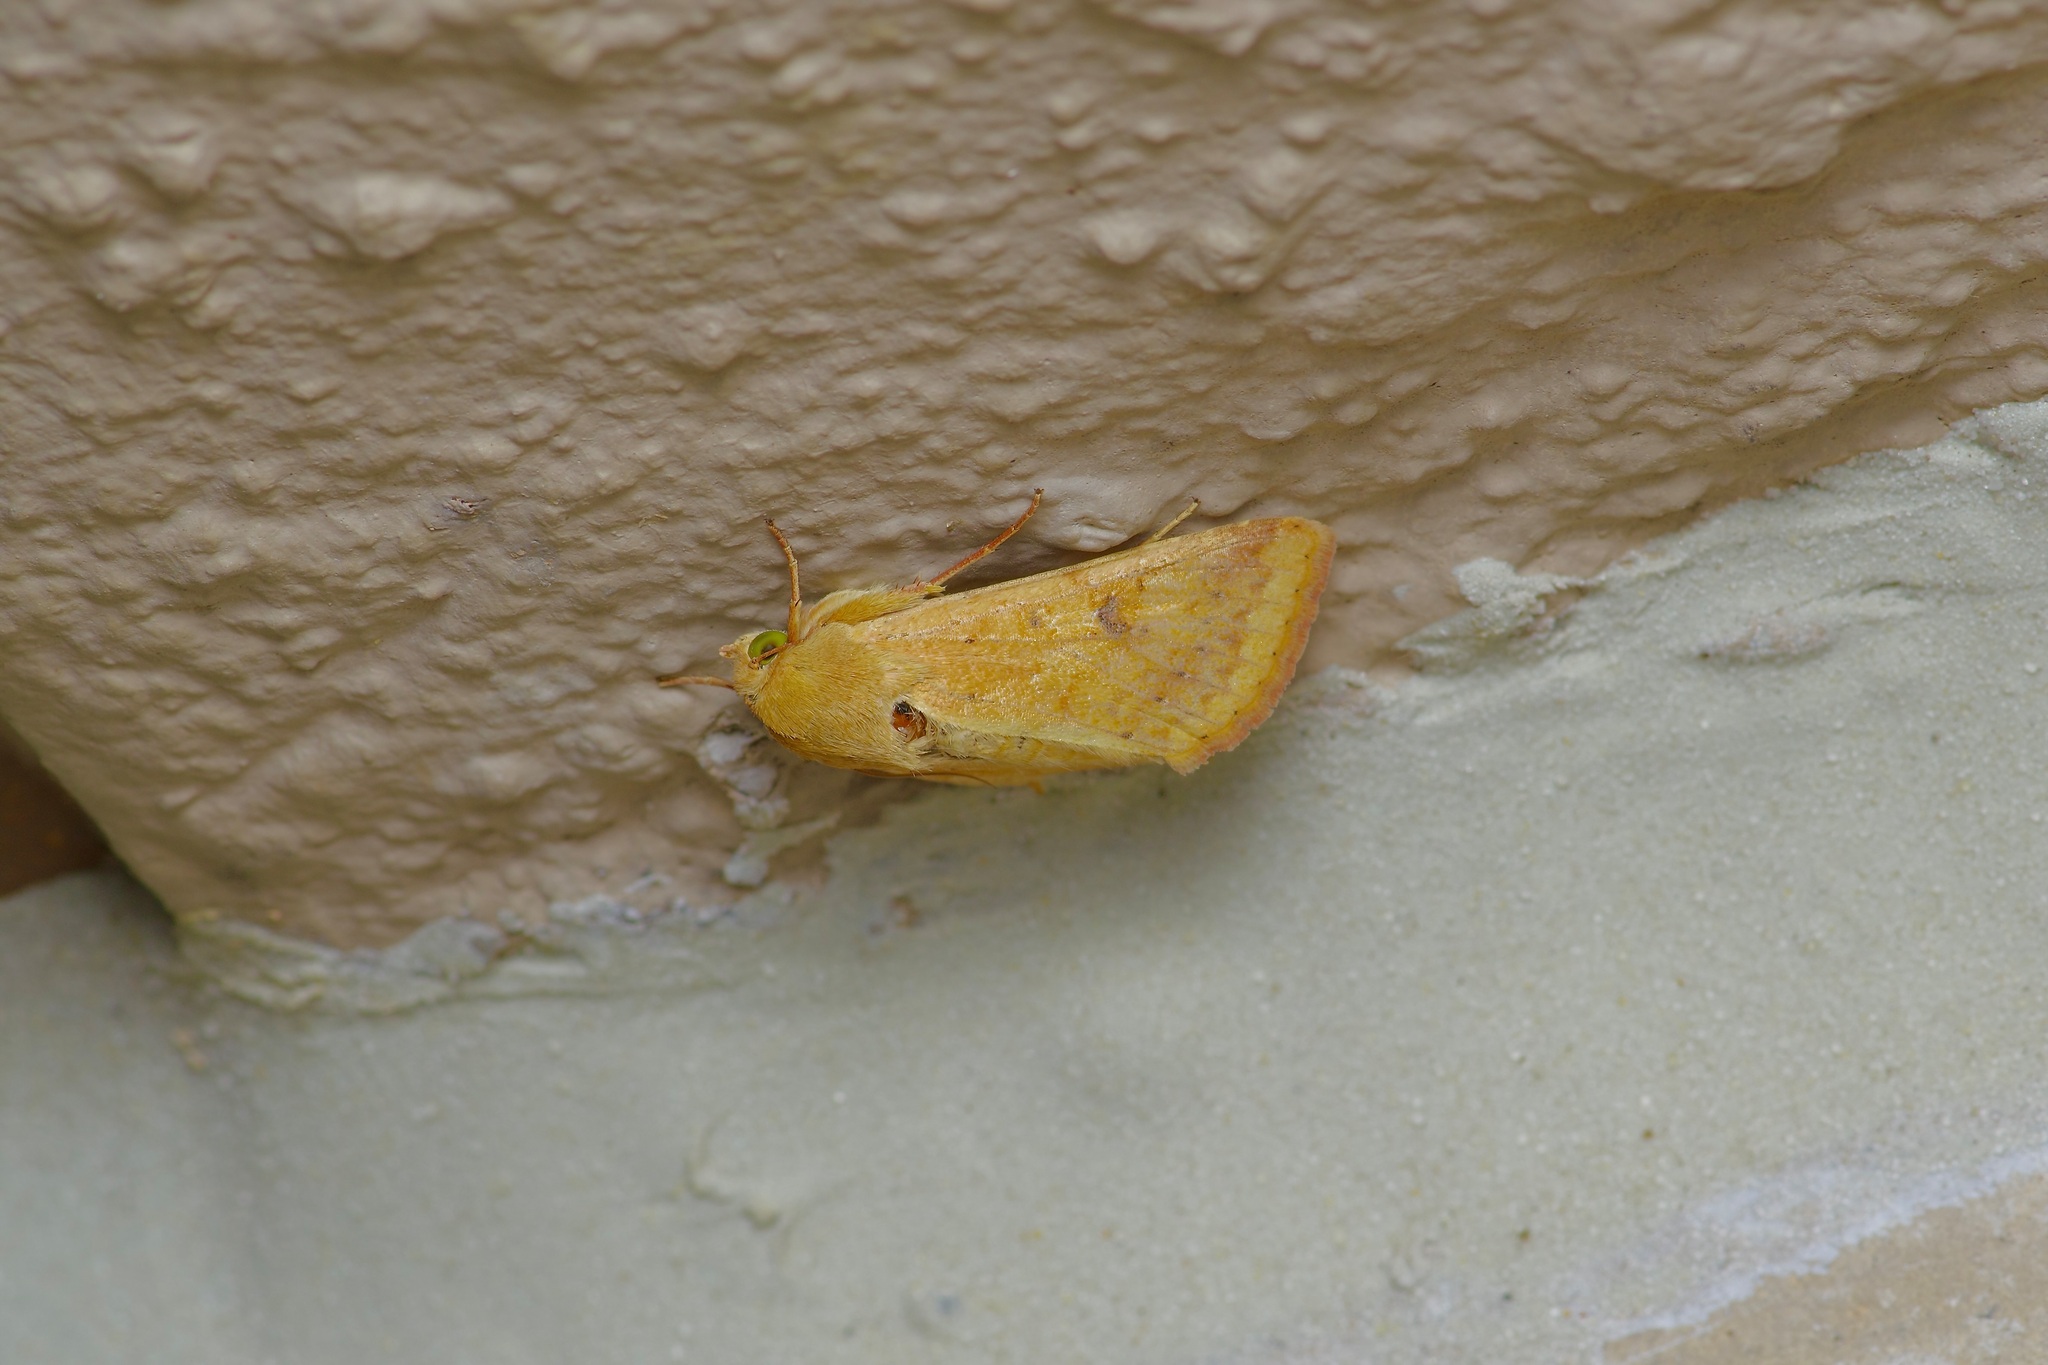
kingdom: Animalia
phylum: Arthropoda
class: Insecta
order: Lepidoptera
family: Noctuidae
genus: Helicoverpa
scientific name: Helicoverpa zea
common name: Bollworm
